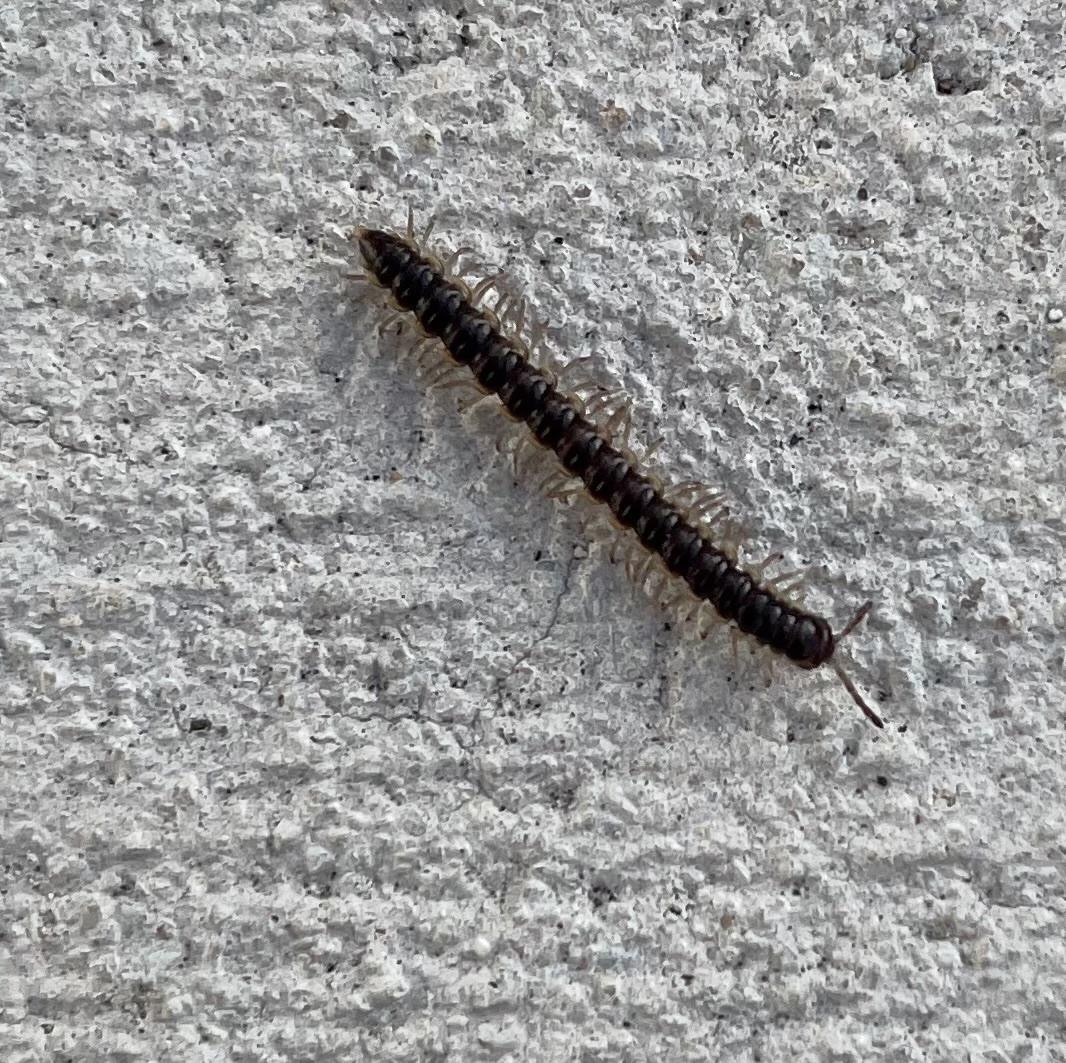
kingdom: Animalia
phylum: Arthropoda
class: Diplopoda
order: Polydesmida
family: Paradoxosomatidae
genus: Oxidus
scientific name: Oxidus gracilis
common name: Greenhouse millipede
